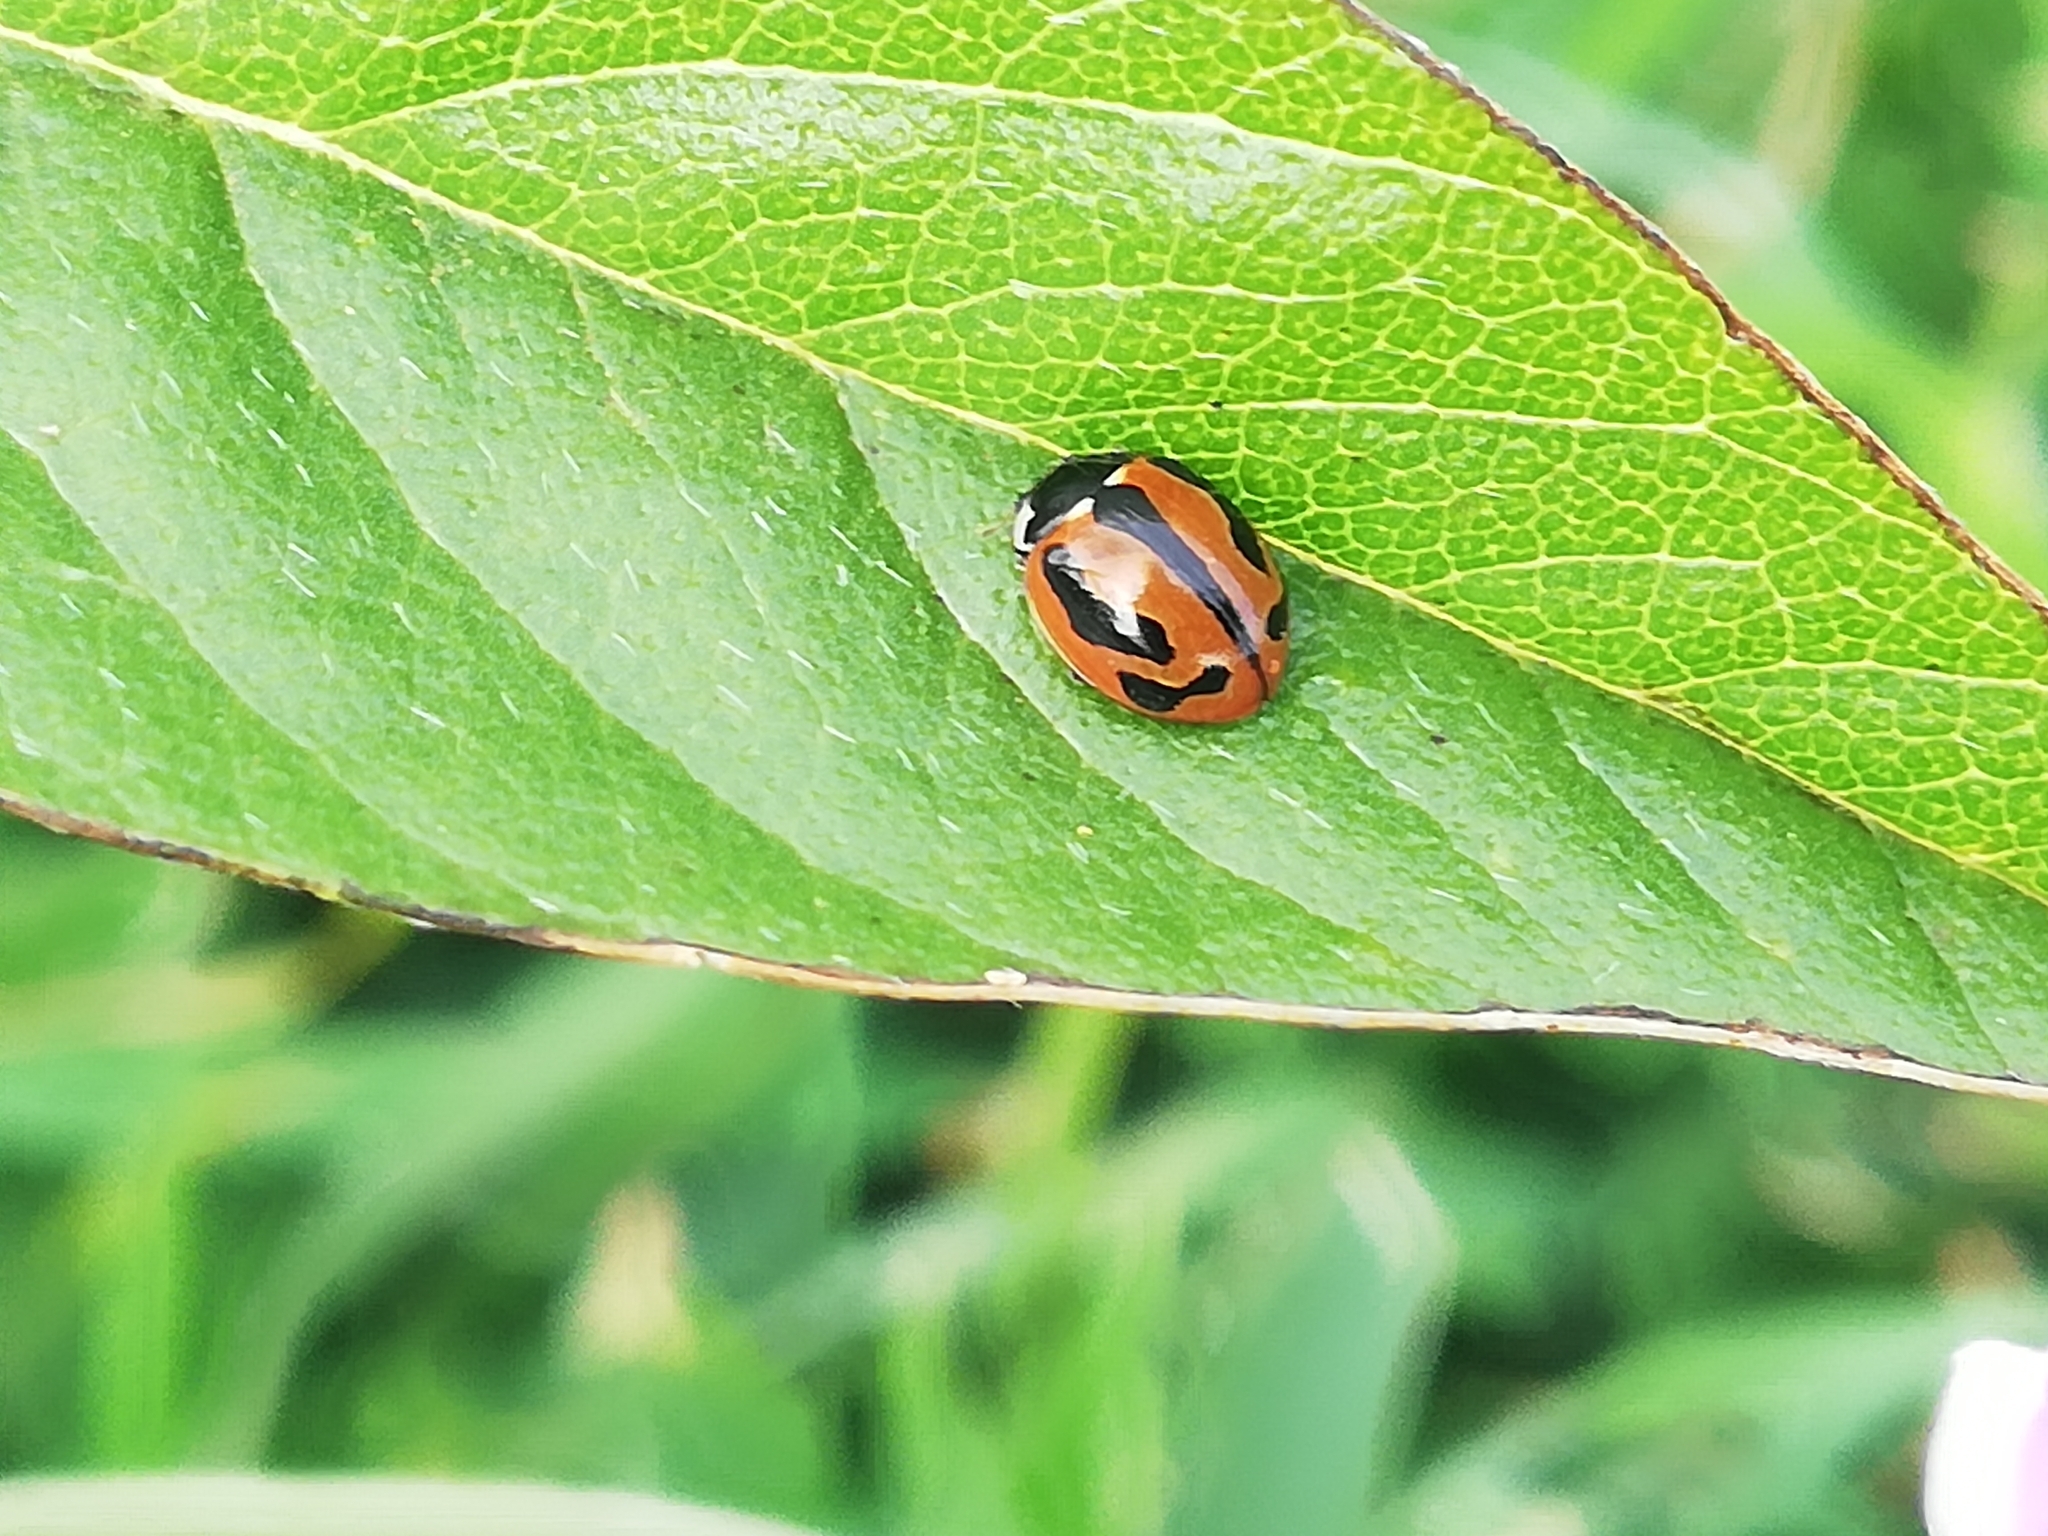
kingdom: Animalia
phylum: Arthropoda
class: Insecta
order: Coleoptera
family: Coccinellidae
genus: Coccinella
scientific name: Coccinella miranda
